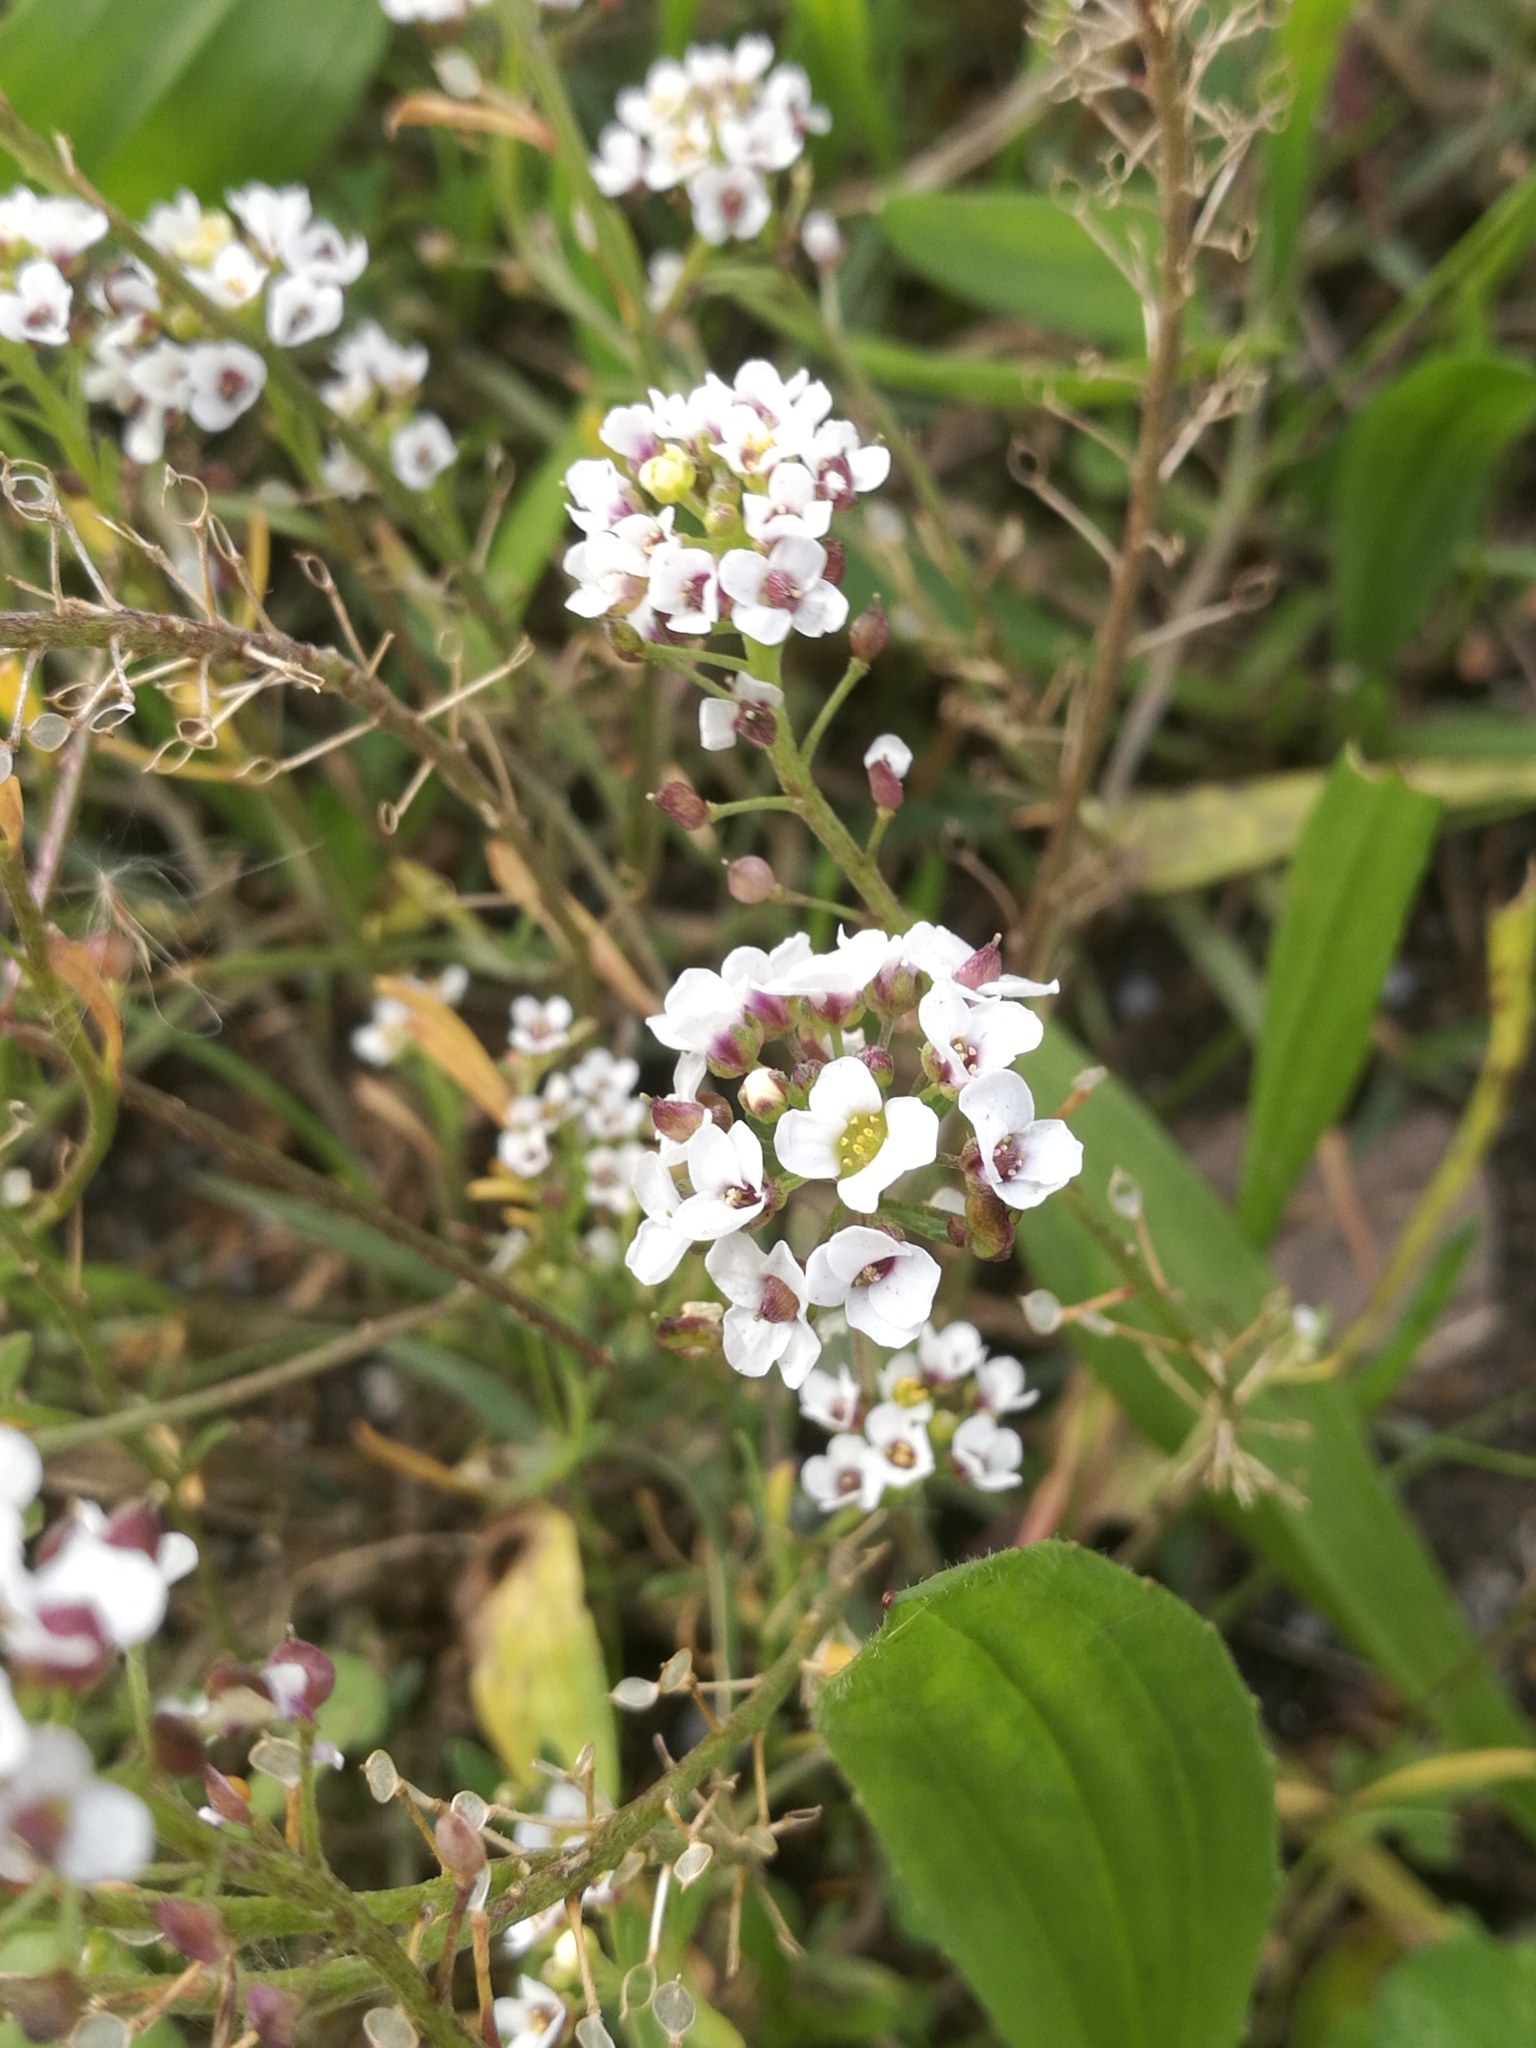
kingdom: Plantae
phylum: Tracheophyta
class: Magnoliopsida
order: Brassicales
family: Brassicaceae
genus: Lobularia
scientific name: Lobularia maritima
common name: Sweet alison
